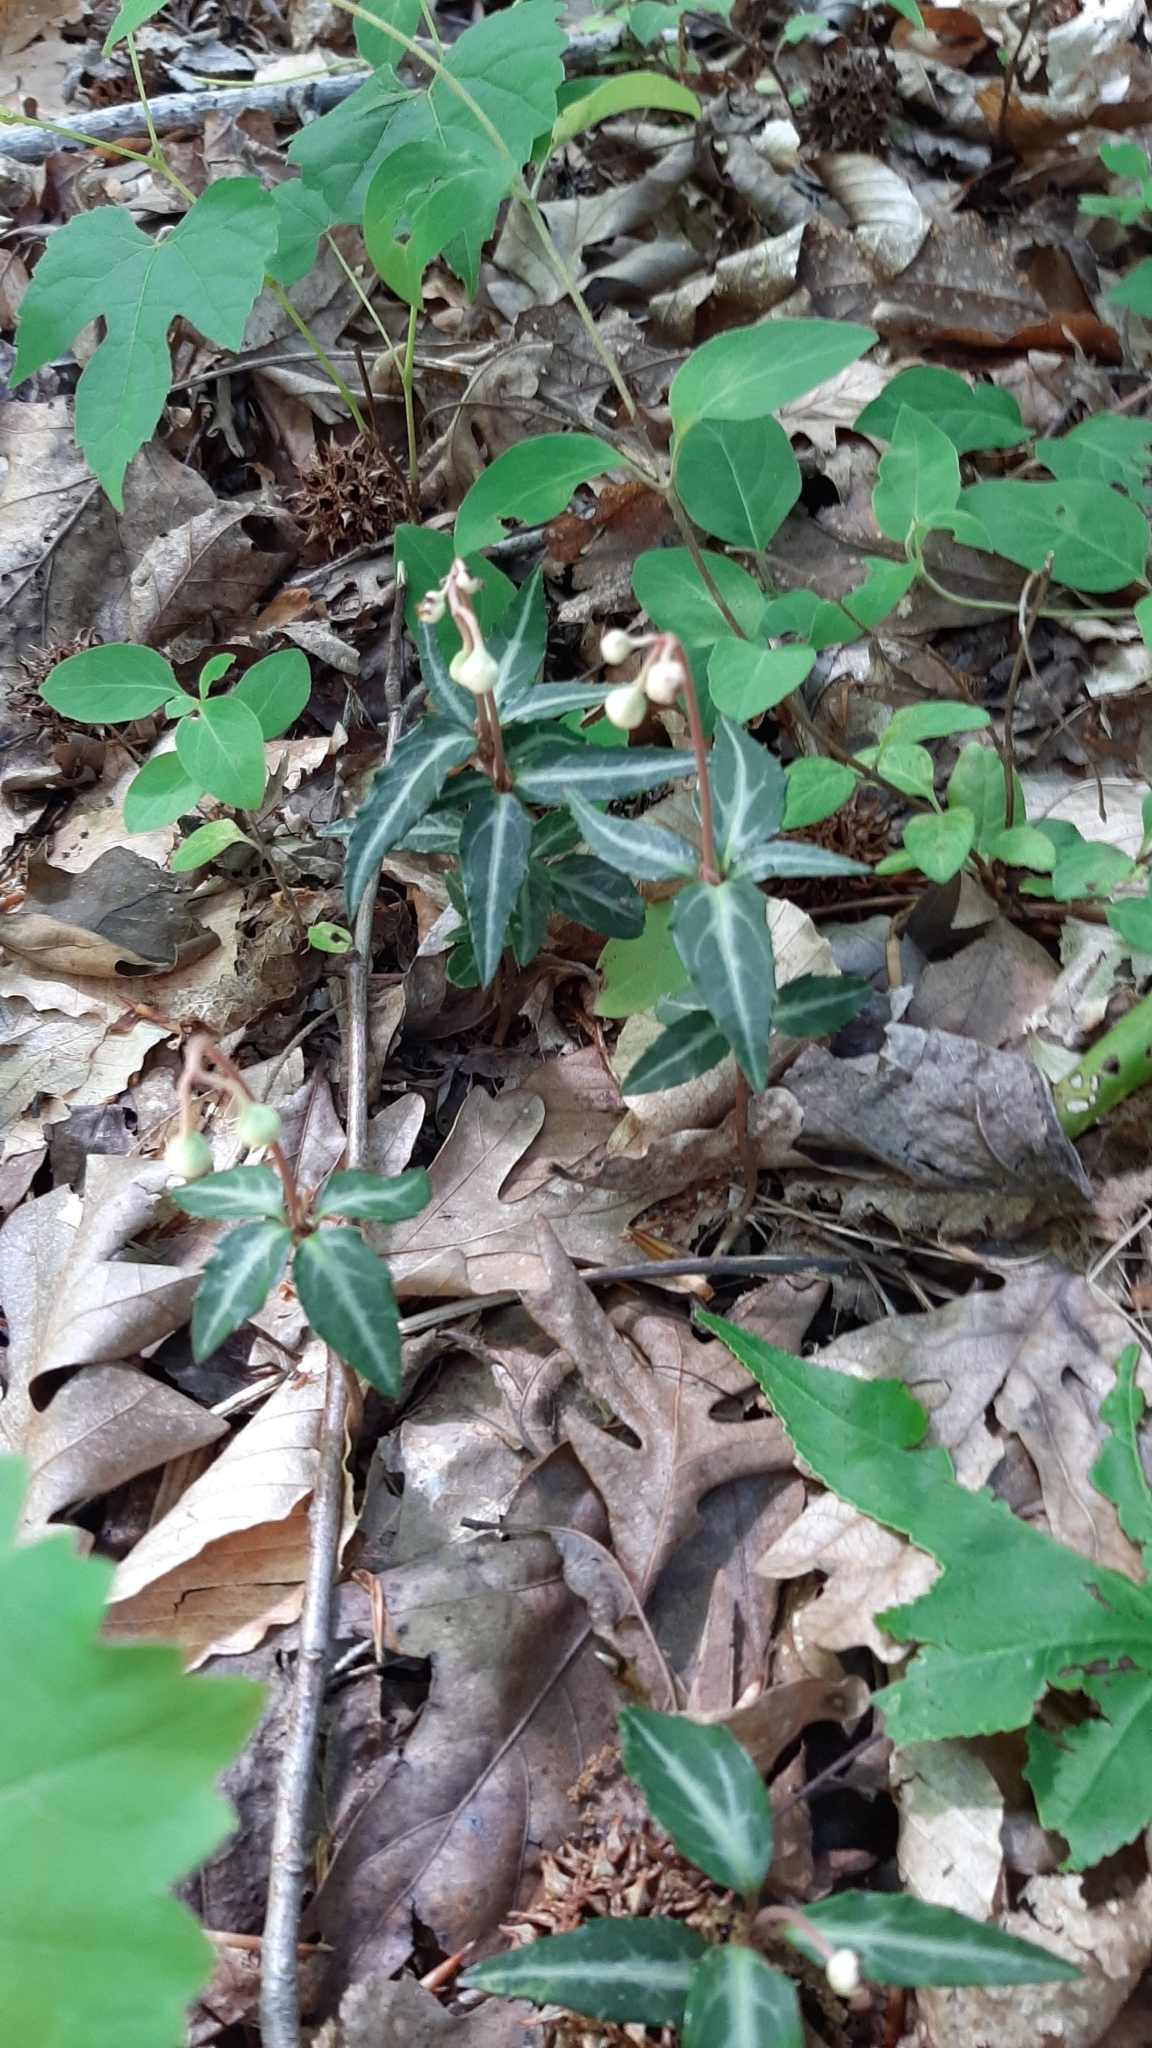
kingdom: Plantae
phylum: Tracheophyta
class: Magnoliopsida
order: Ericales
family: Ericaceae
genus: Chimaphila
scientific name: Chimaphila maculata
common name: Spotted pipsissewa
